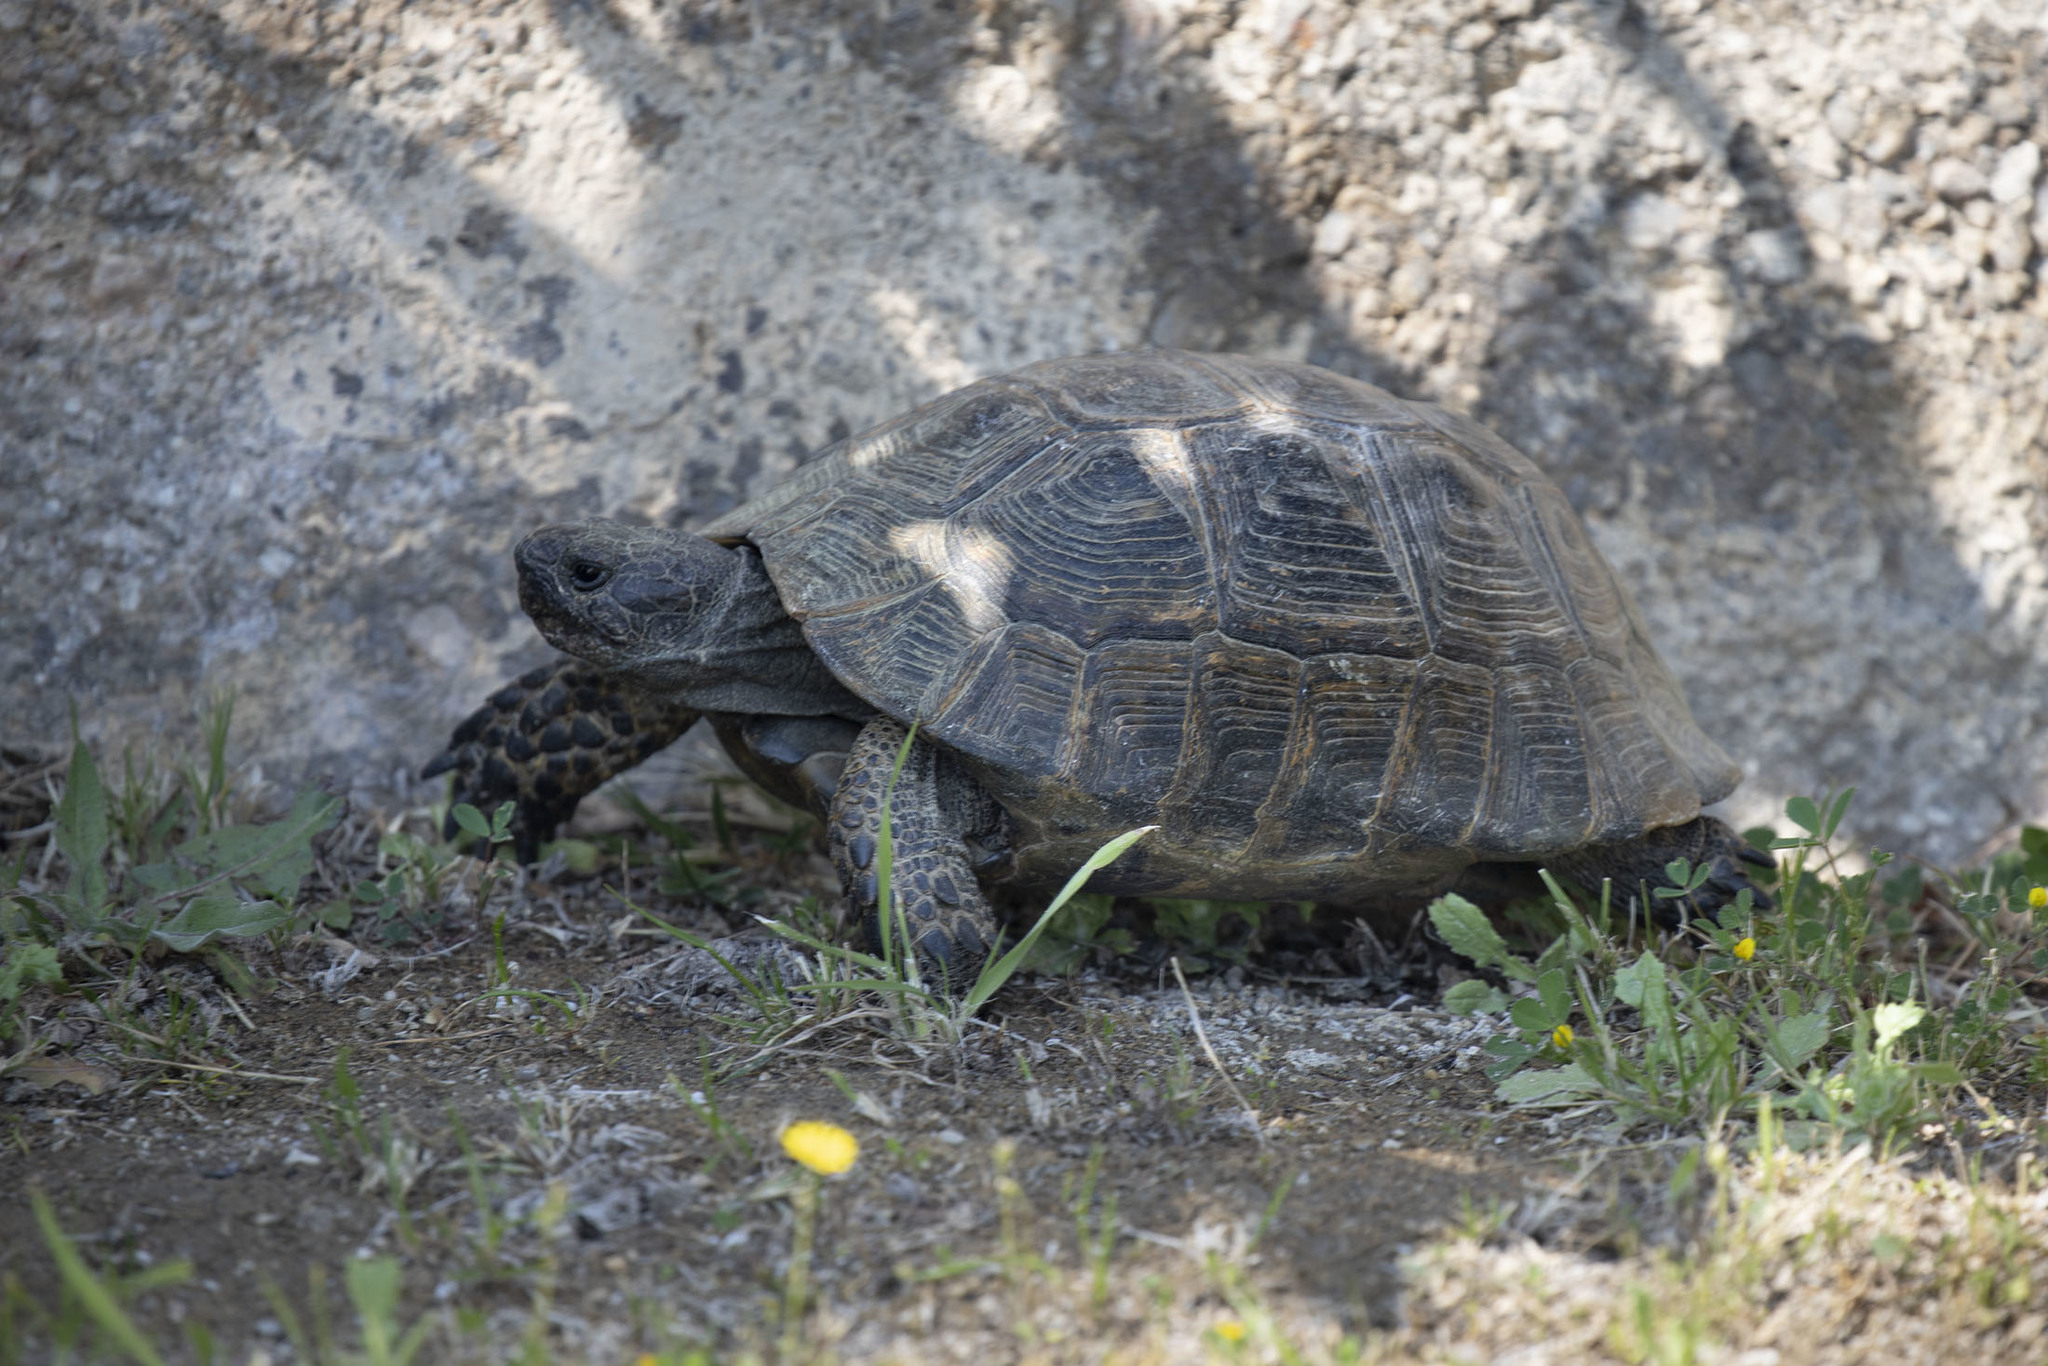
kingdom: Animalia
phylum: Chordata
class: Testudines
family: Testudinidae
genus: Testudo
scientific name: Testudo graeca
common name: Common tortoise
